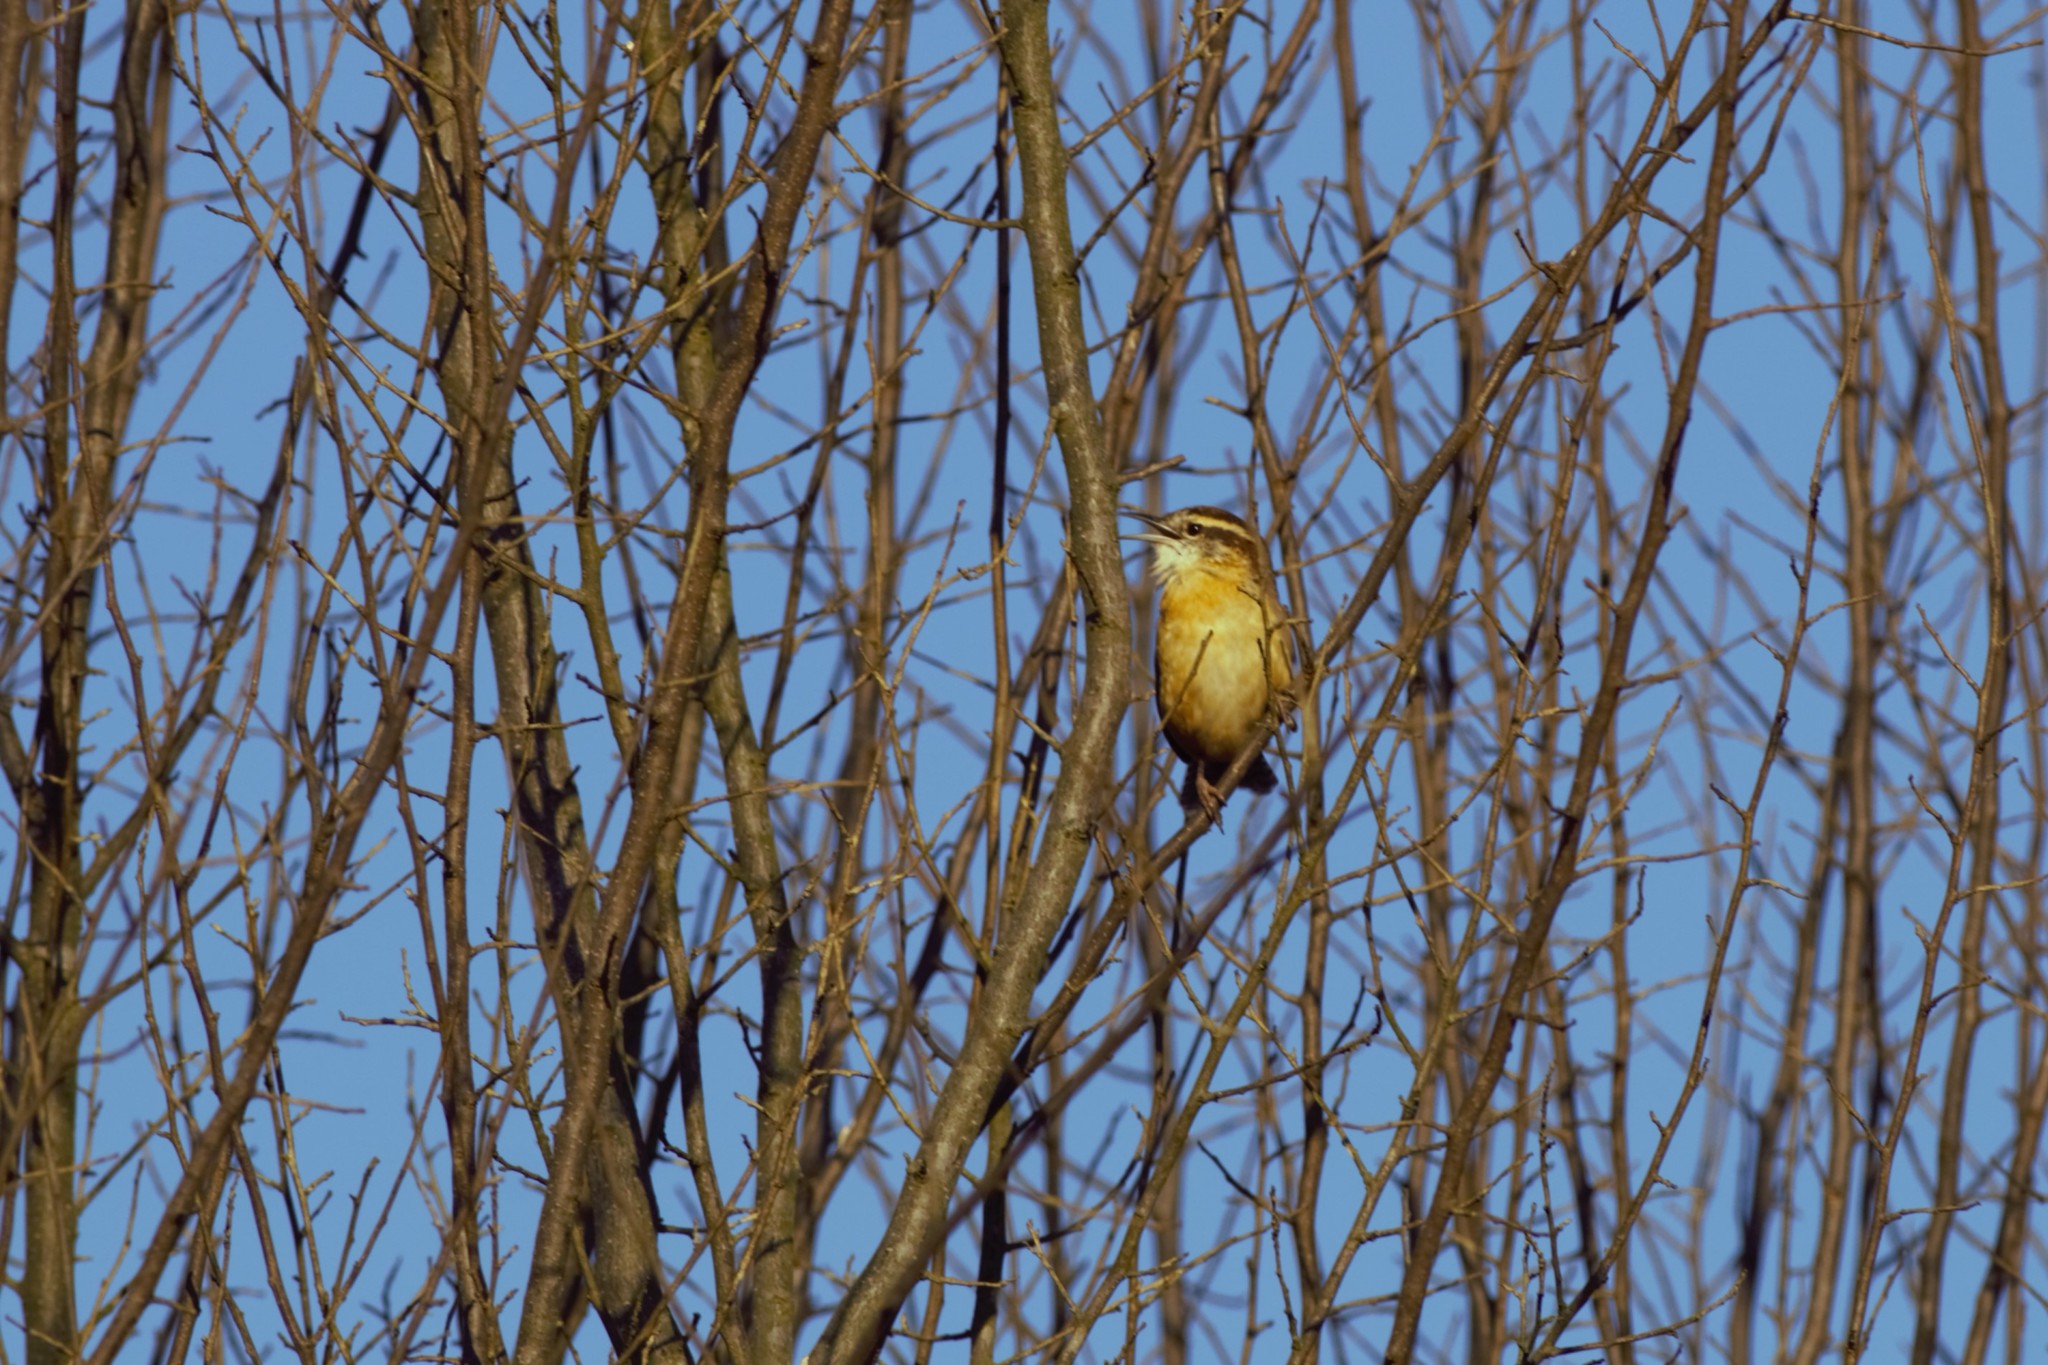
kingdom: Animalia
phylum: Chordata
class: Aves
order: Passeriformes
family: Troglodytidae
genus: Thryothorus
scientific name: Thryothorus ludovicianus
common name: Carolina wren
